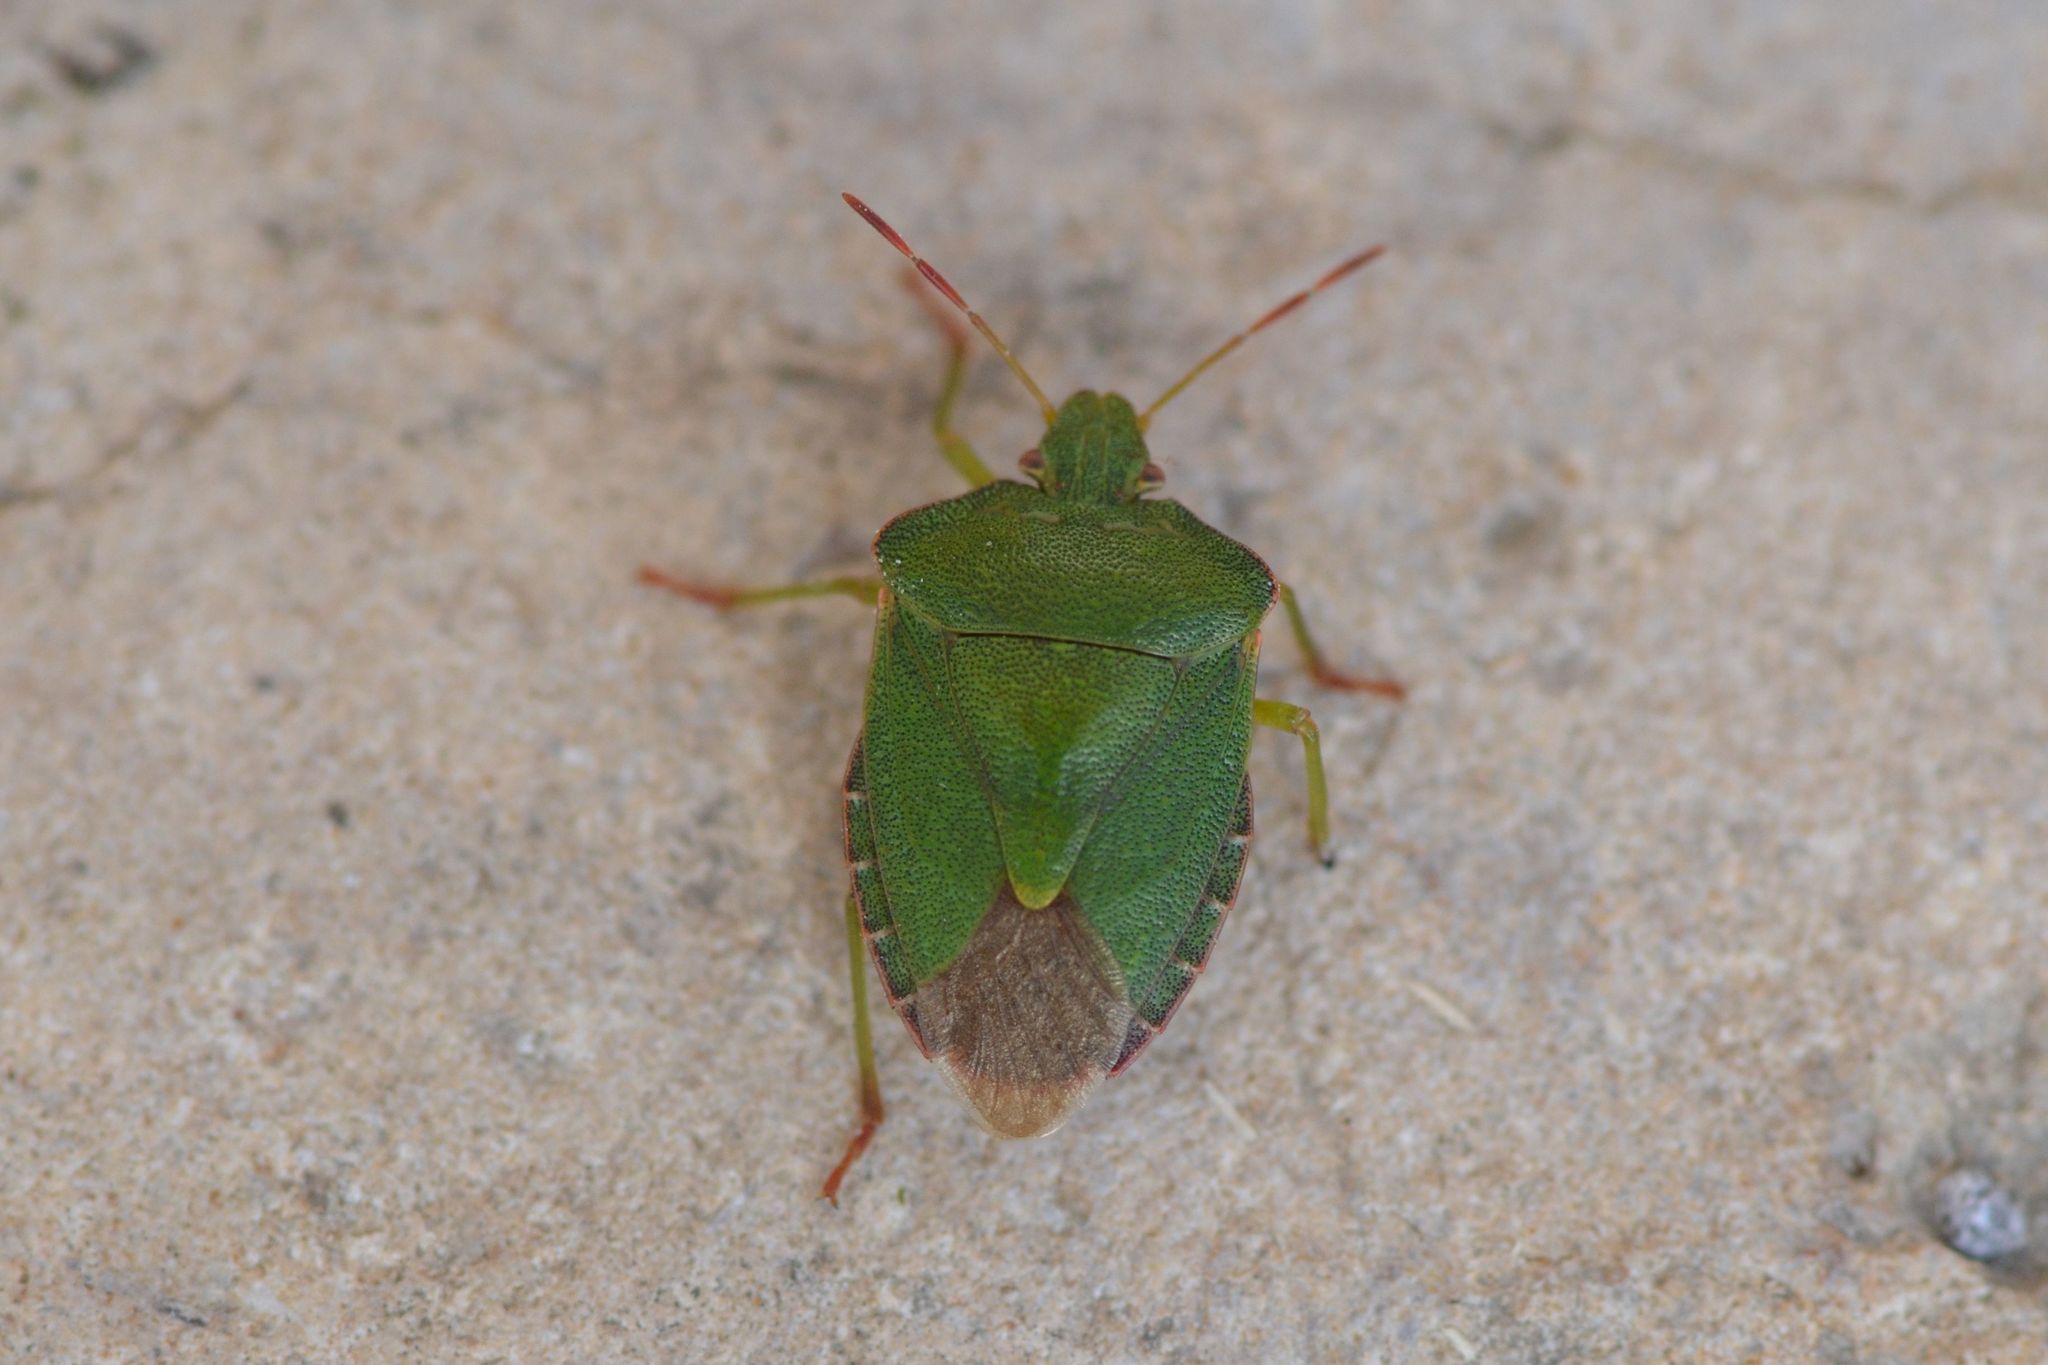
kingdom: Animalia
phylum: Arthropoda
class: Insecta
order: Hemiptera
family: Pentatomidae
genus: Palomena
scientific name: Palomena prasina
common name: Green shieldbug
